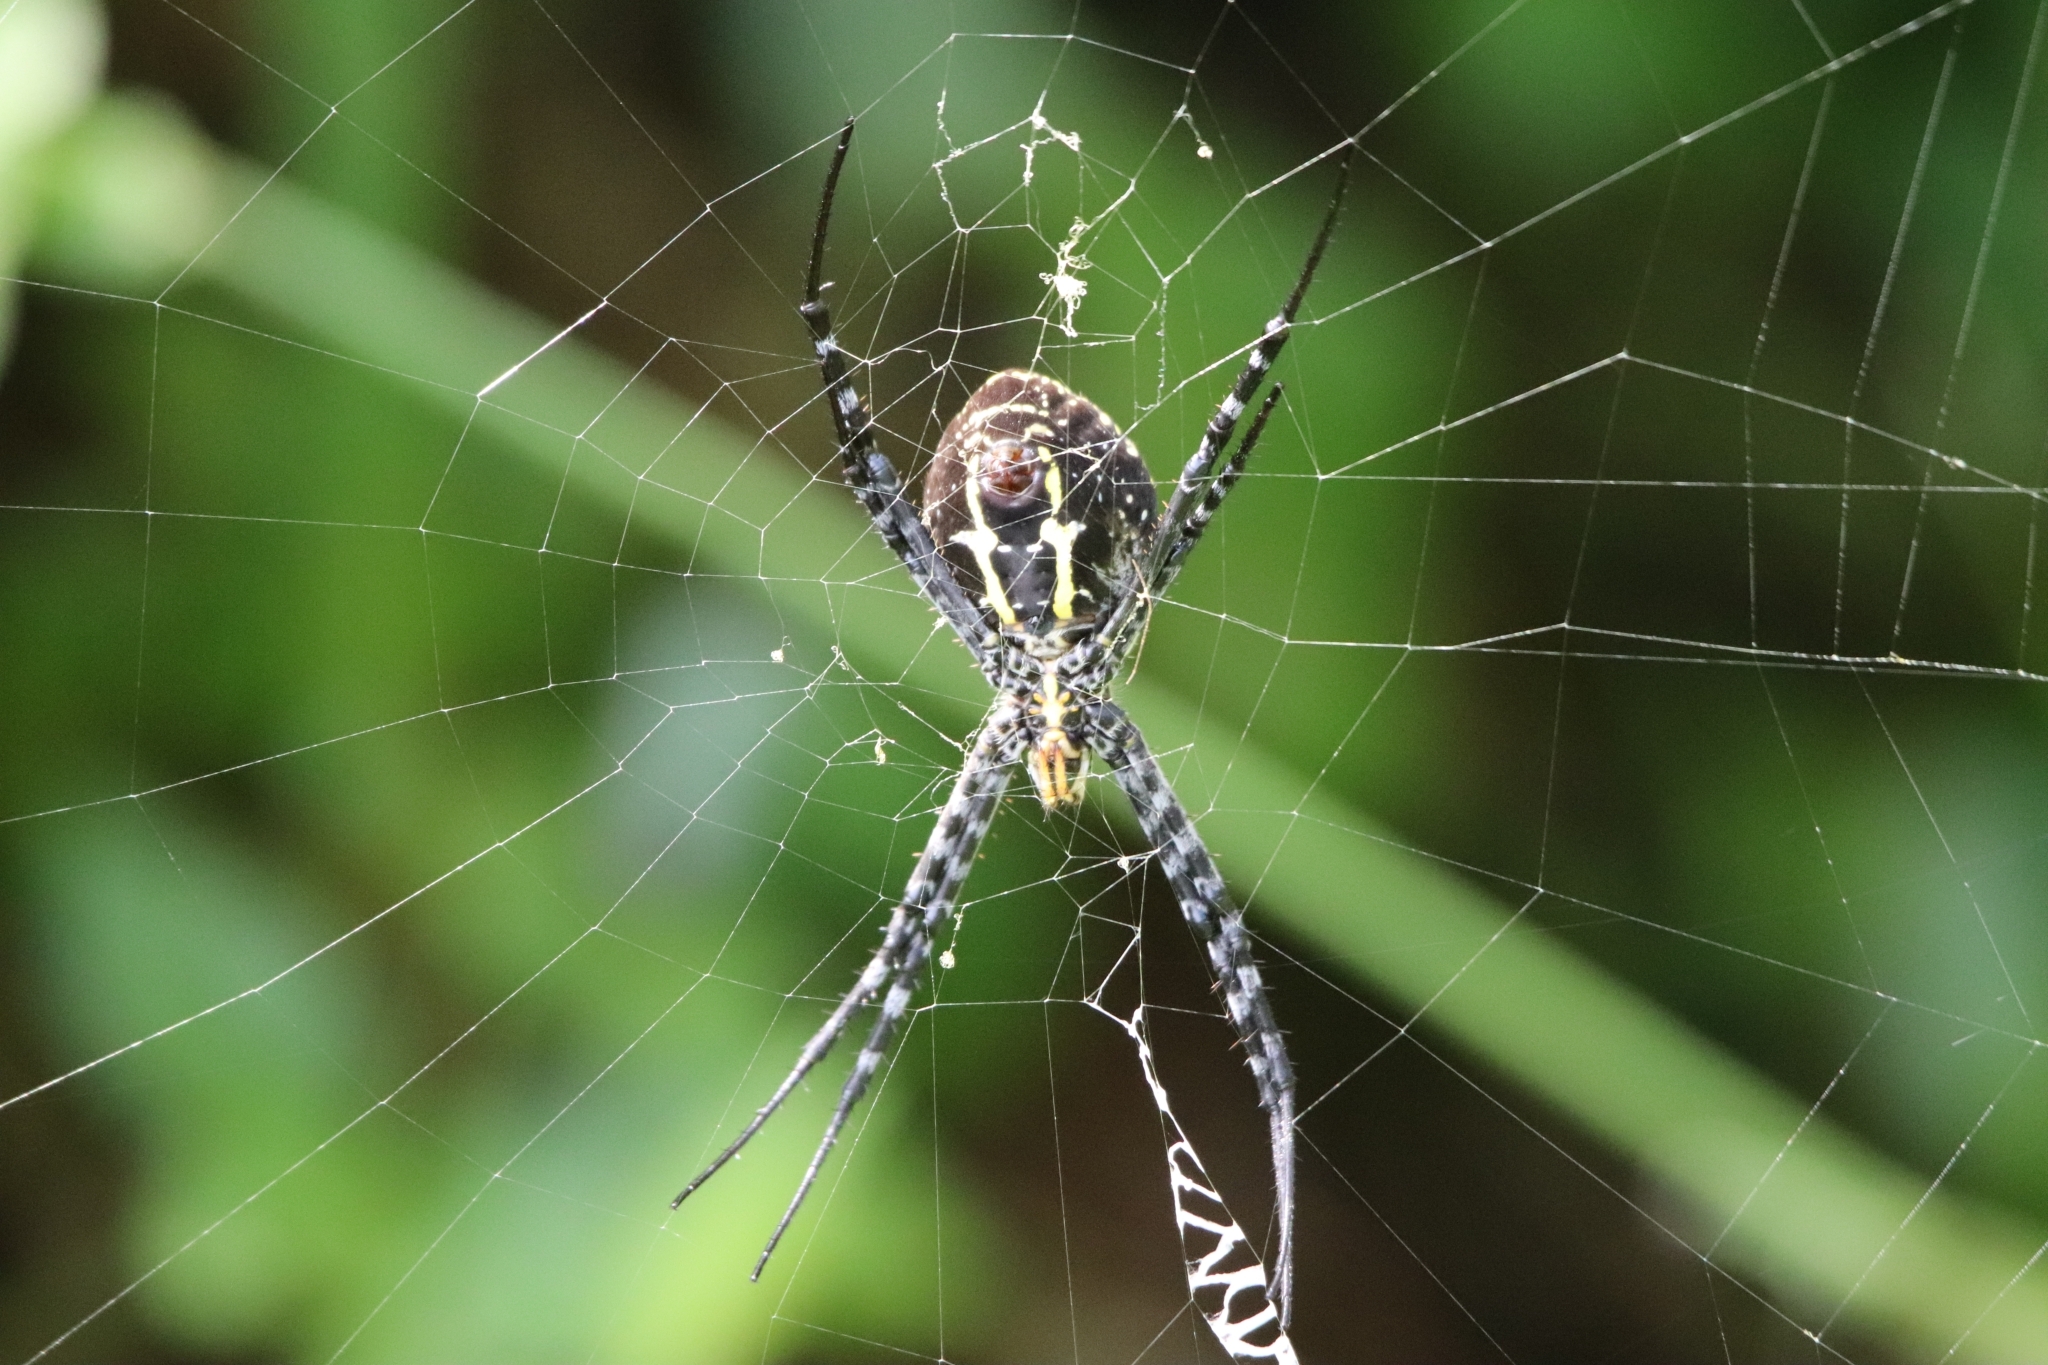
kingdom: Animalia
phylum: Arthropoda
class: Arachnida
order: Araneae
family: Araneidae
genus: Argiope
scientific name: Argiope aemula
